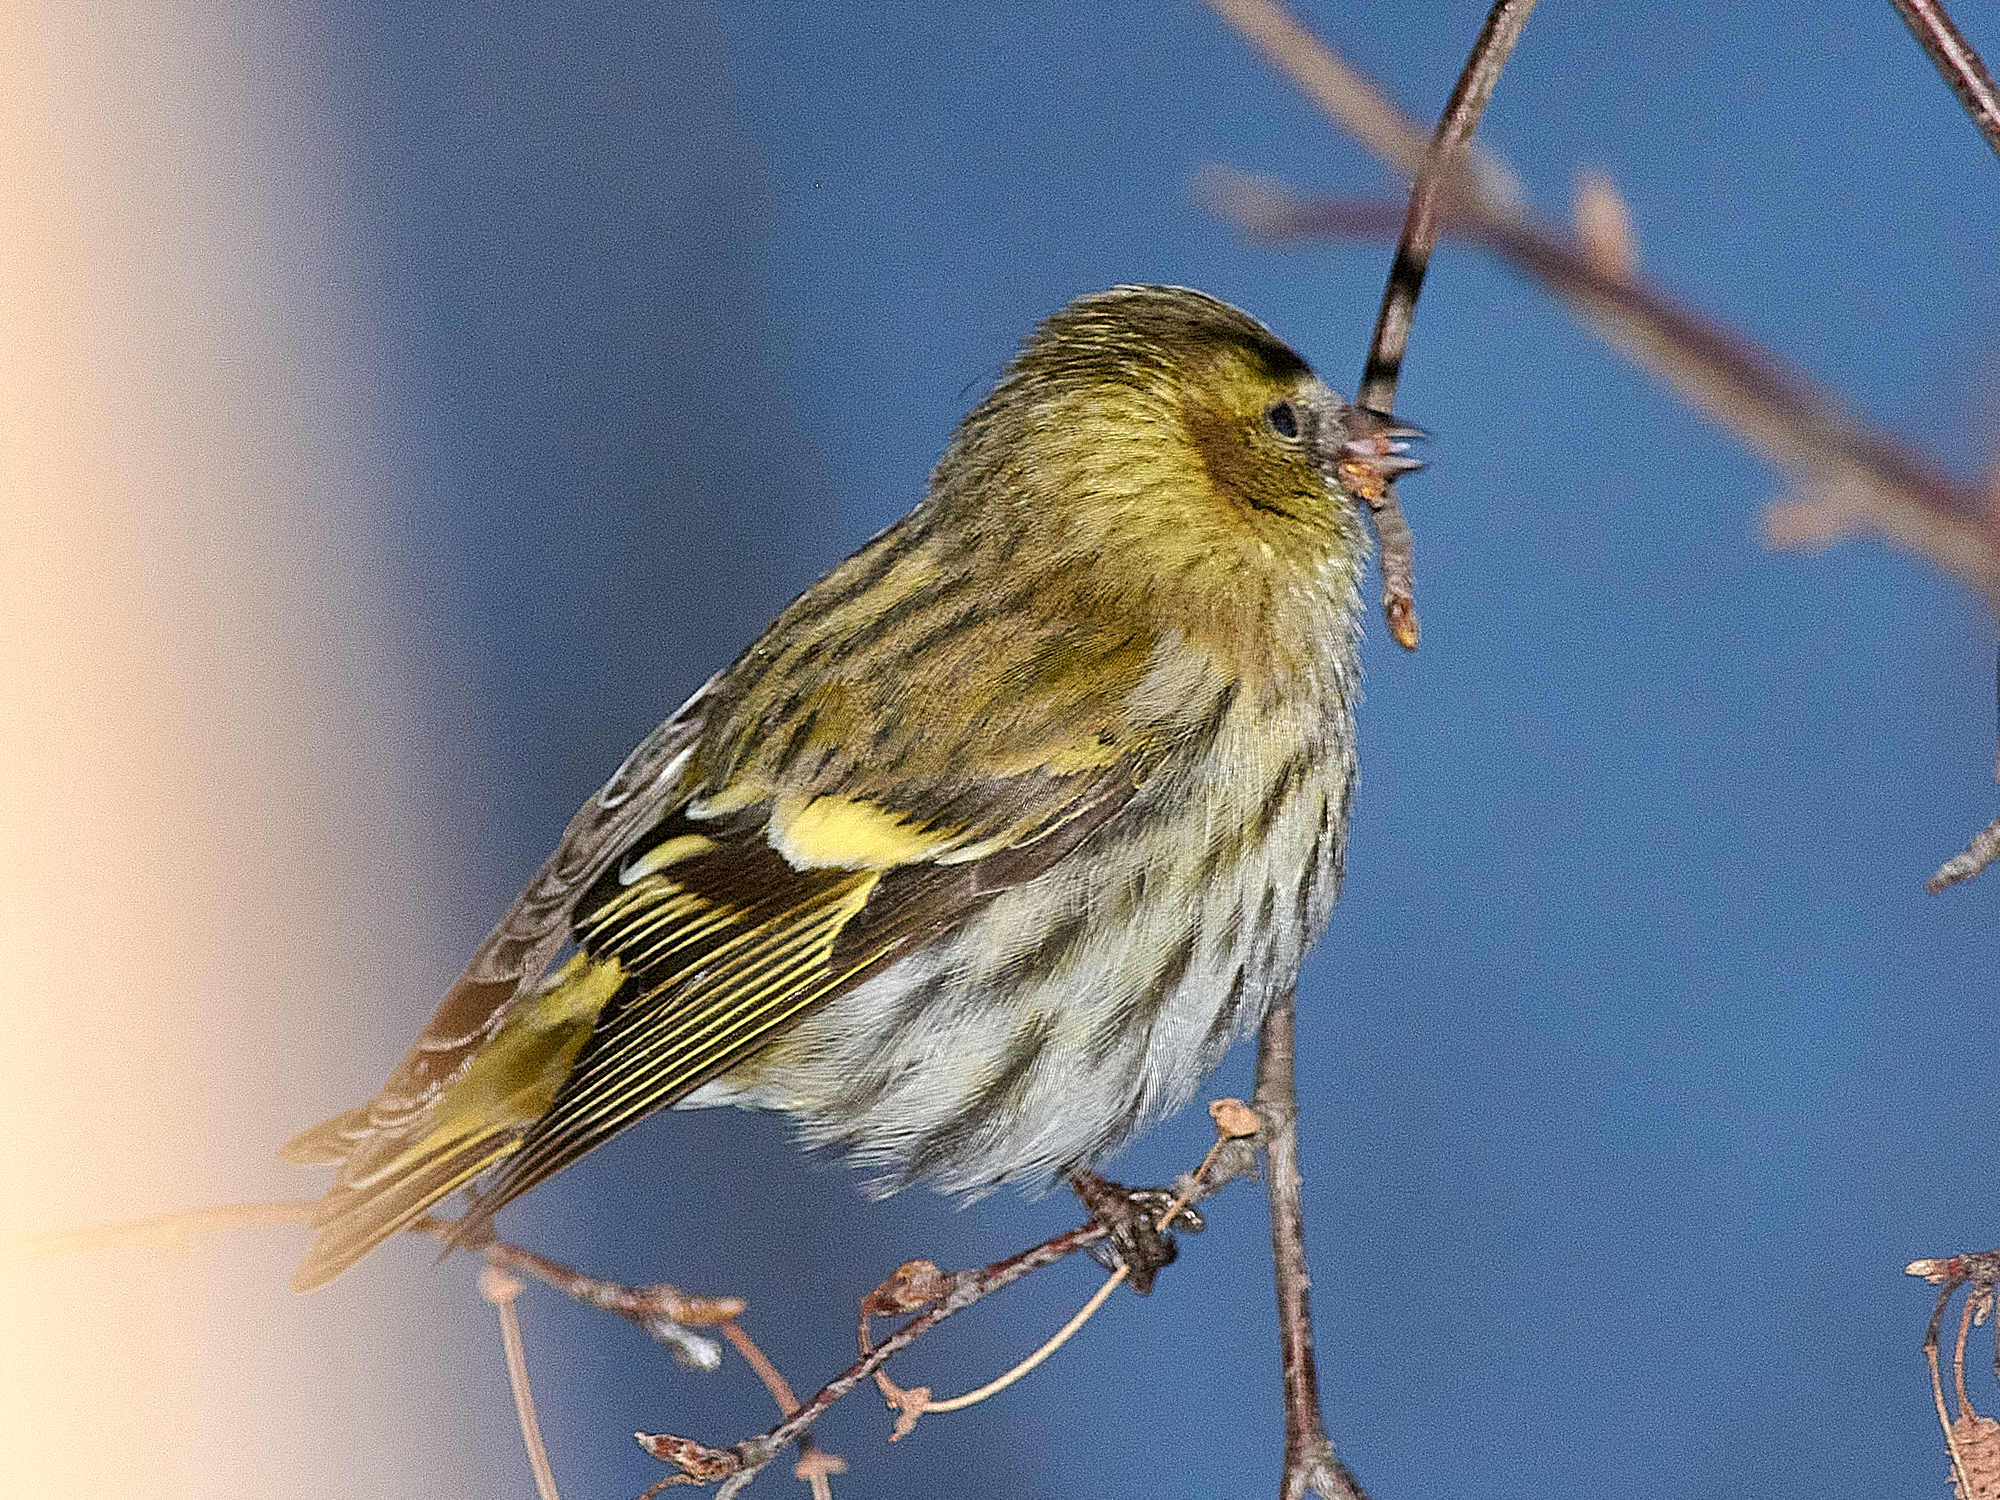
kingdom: Animalia
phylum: Chordata
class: Aves
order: Passeriformes
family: Fringillidae
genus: Spinus
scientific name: Spinus spinus
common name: Eurasian siskin
